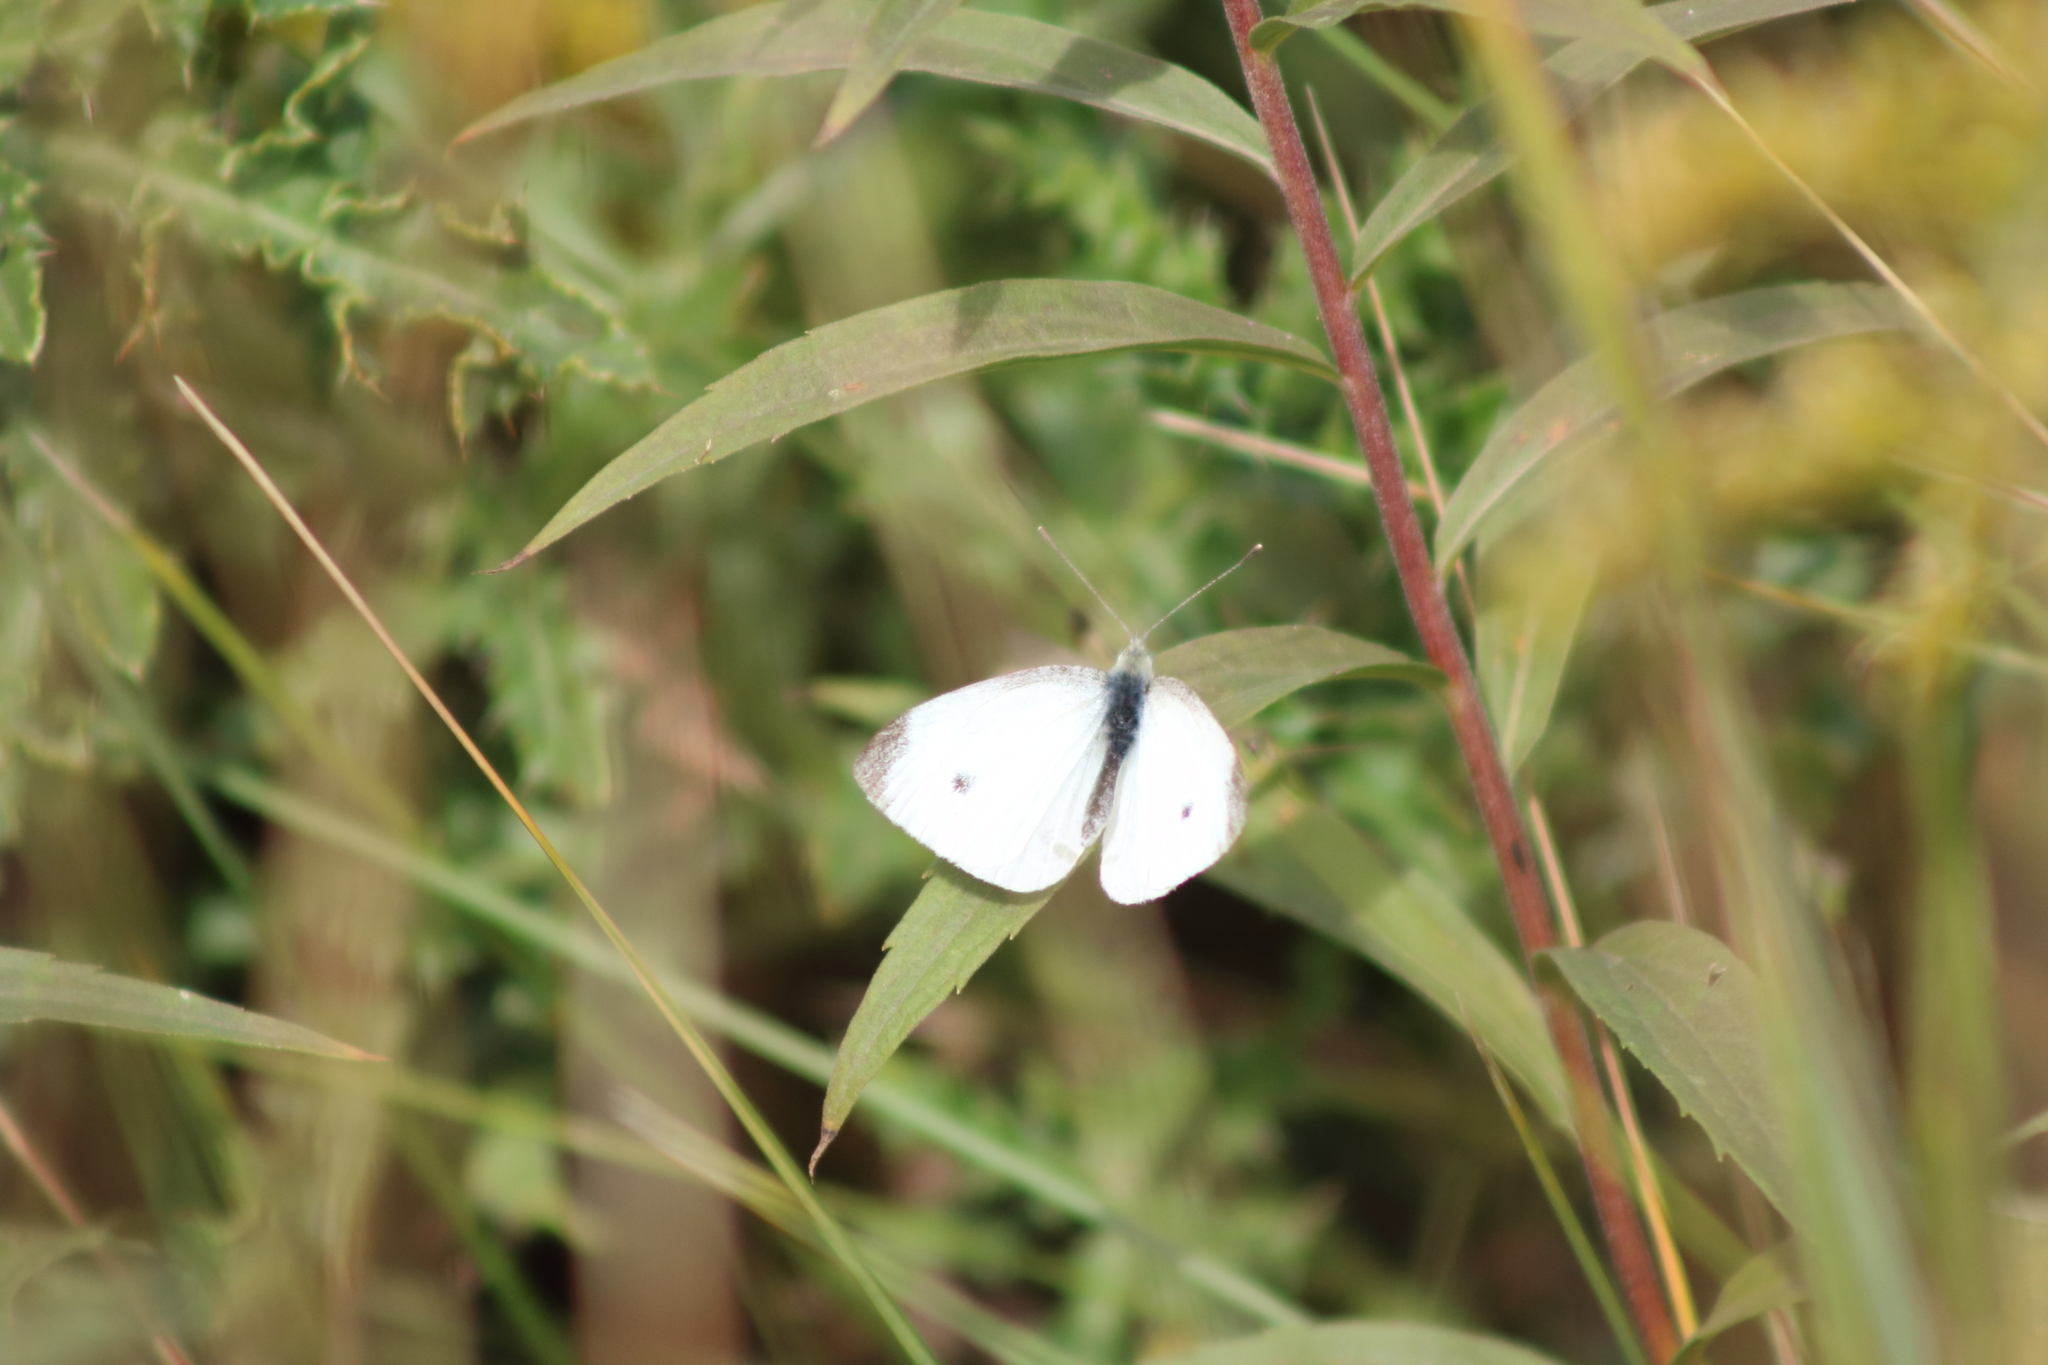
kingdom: Animalia
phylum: Arthropoda
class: Insecta
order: Lepidoptera
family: Pieridae
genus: Pieris
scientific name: Pieris rapae
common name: Small white
